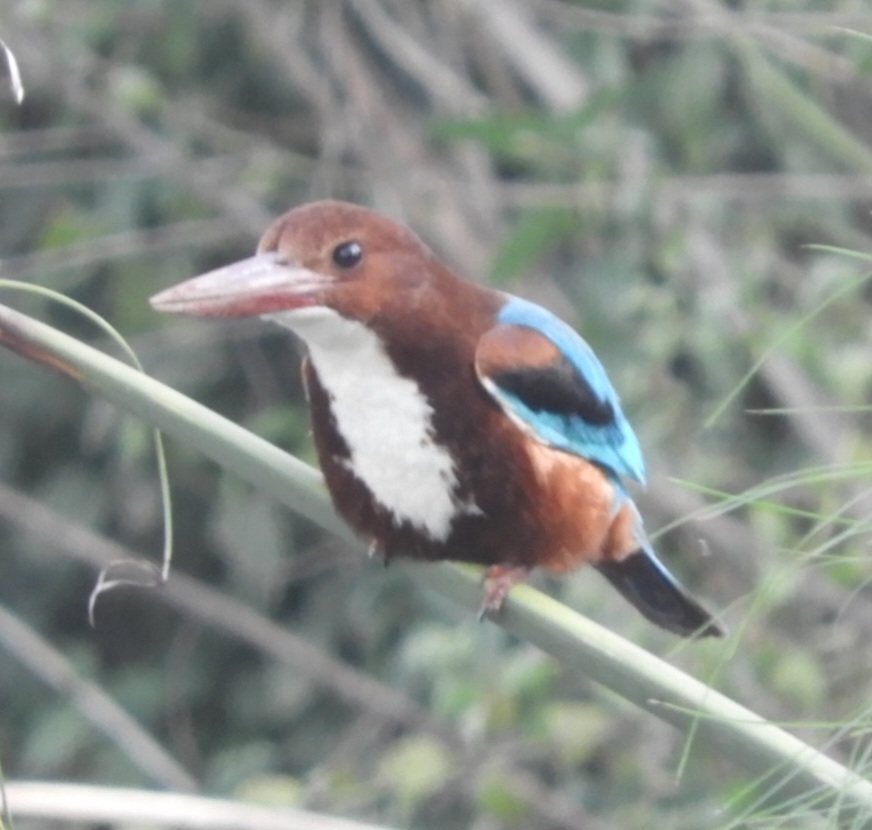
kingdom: Animalia
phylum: Chordata
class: Aves
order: Coraciiformes
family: Alcedinidae
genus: Halcyon
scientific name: Halcyon smyrnensis
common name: White-throated kingfisher
